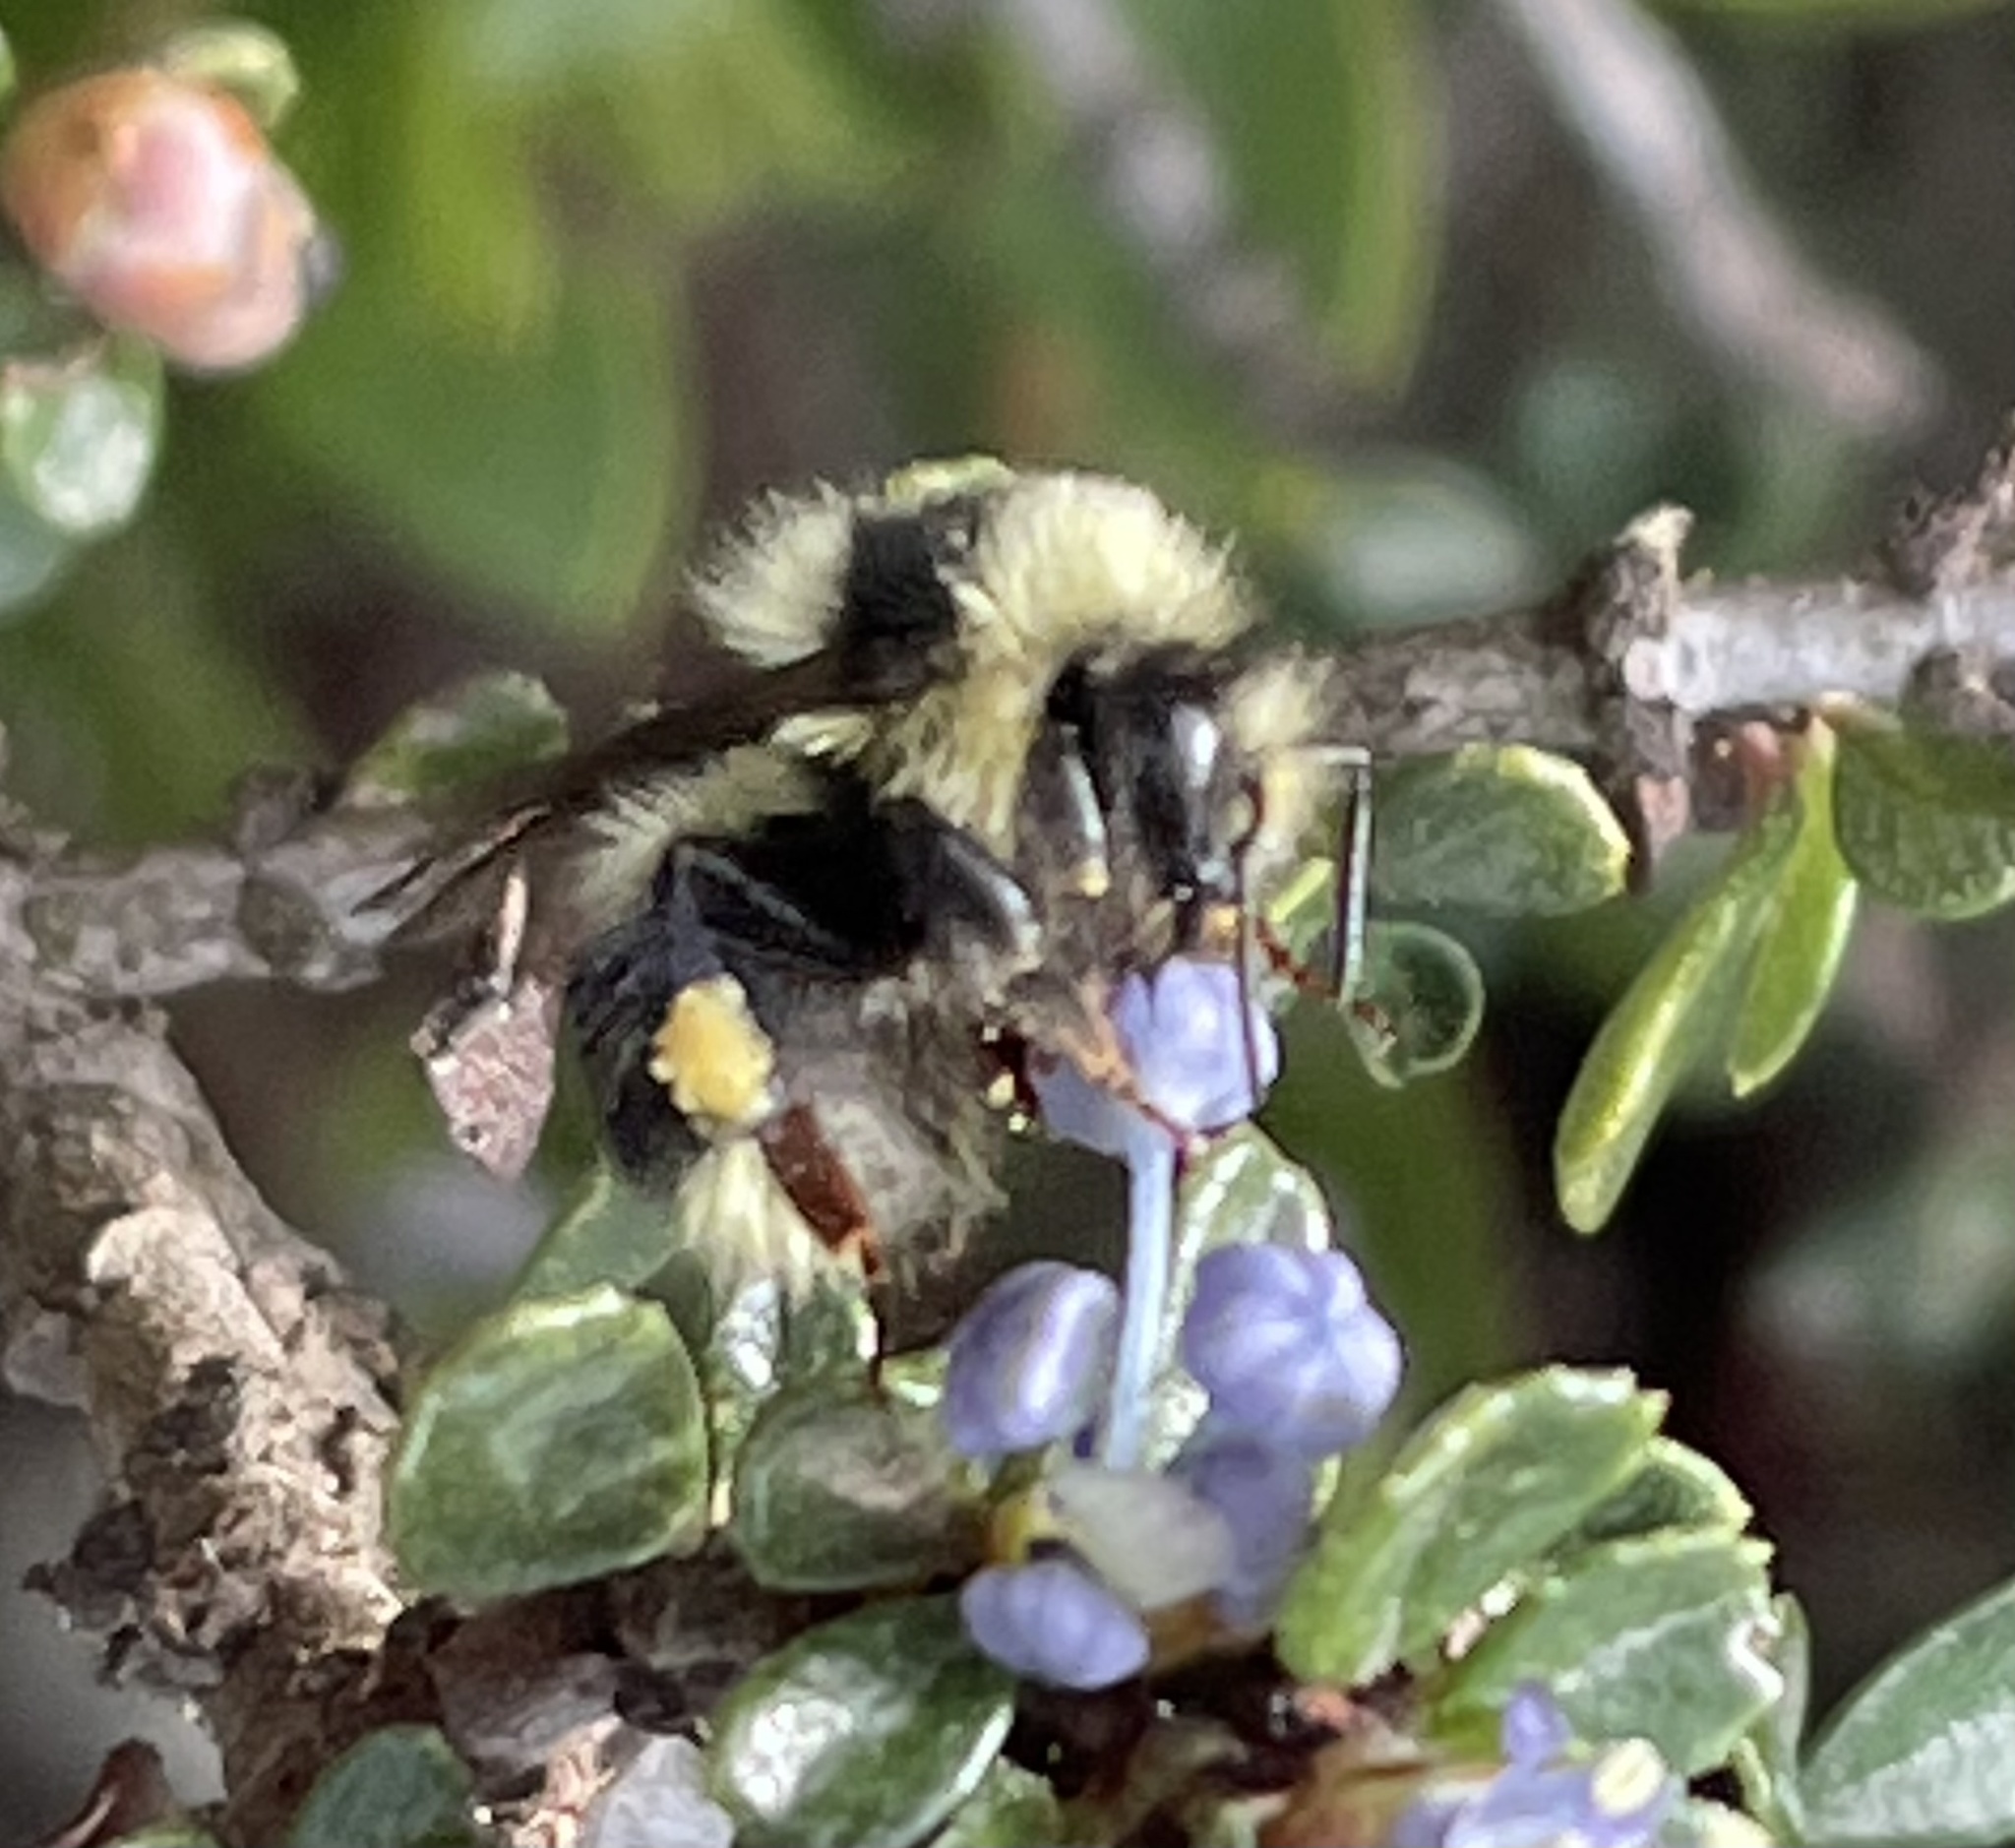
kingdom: Animalia
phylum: Arthropoda
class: Insecta
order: Hymenoptera
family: Apidae
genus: Bombus
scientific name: Bombus melanopygus
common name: Black tail bumble bee
